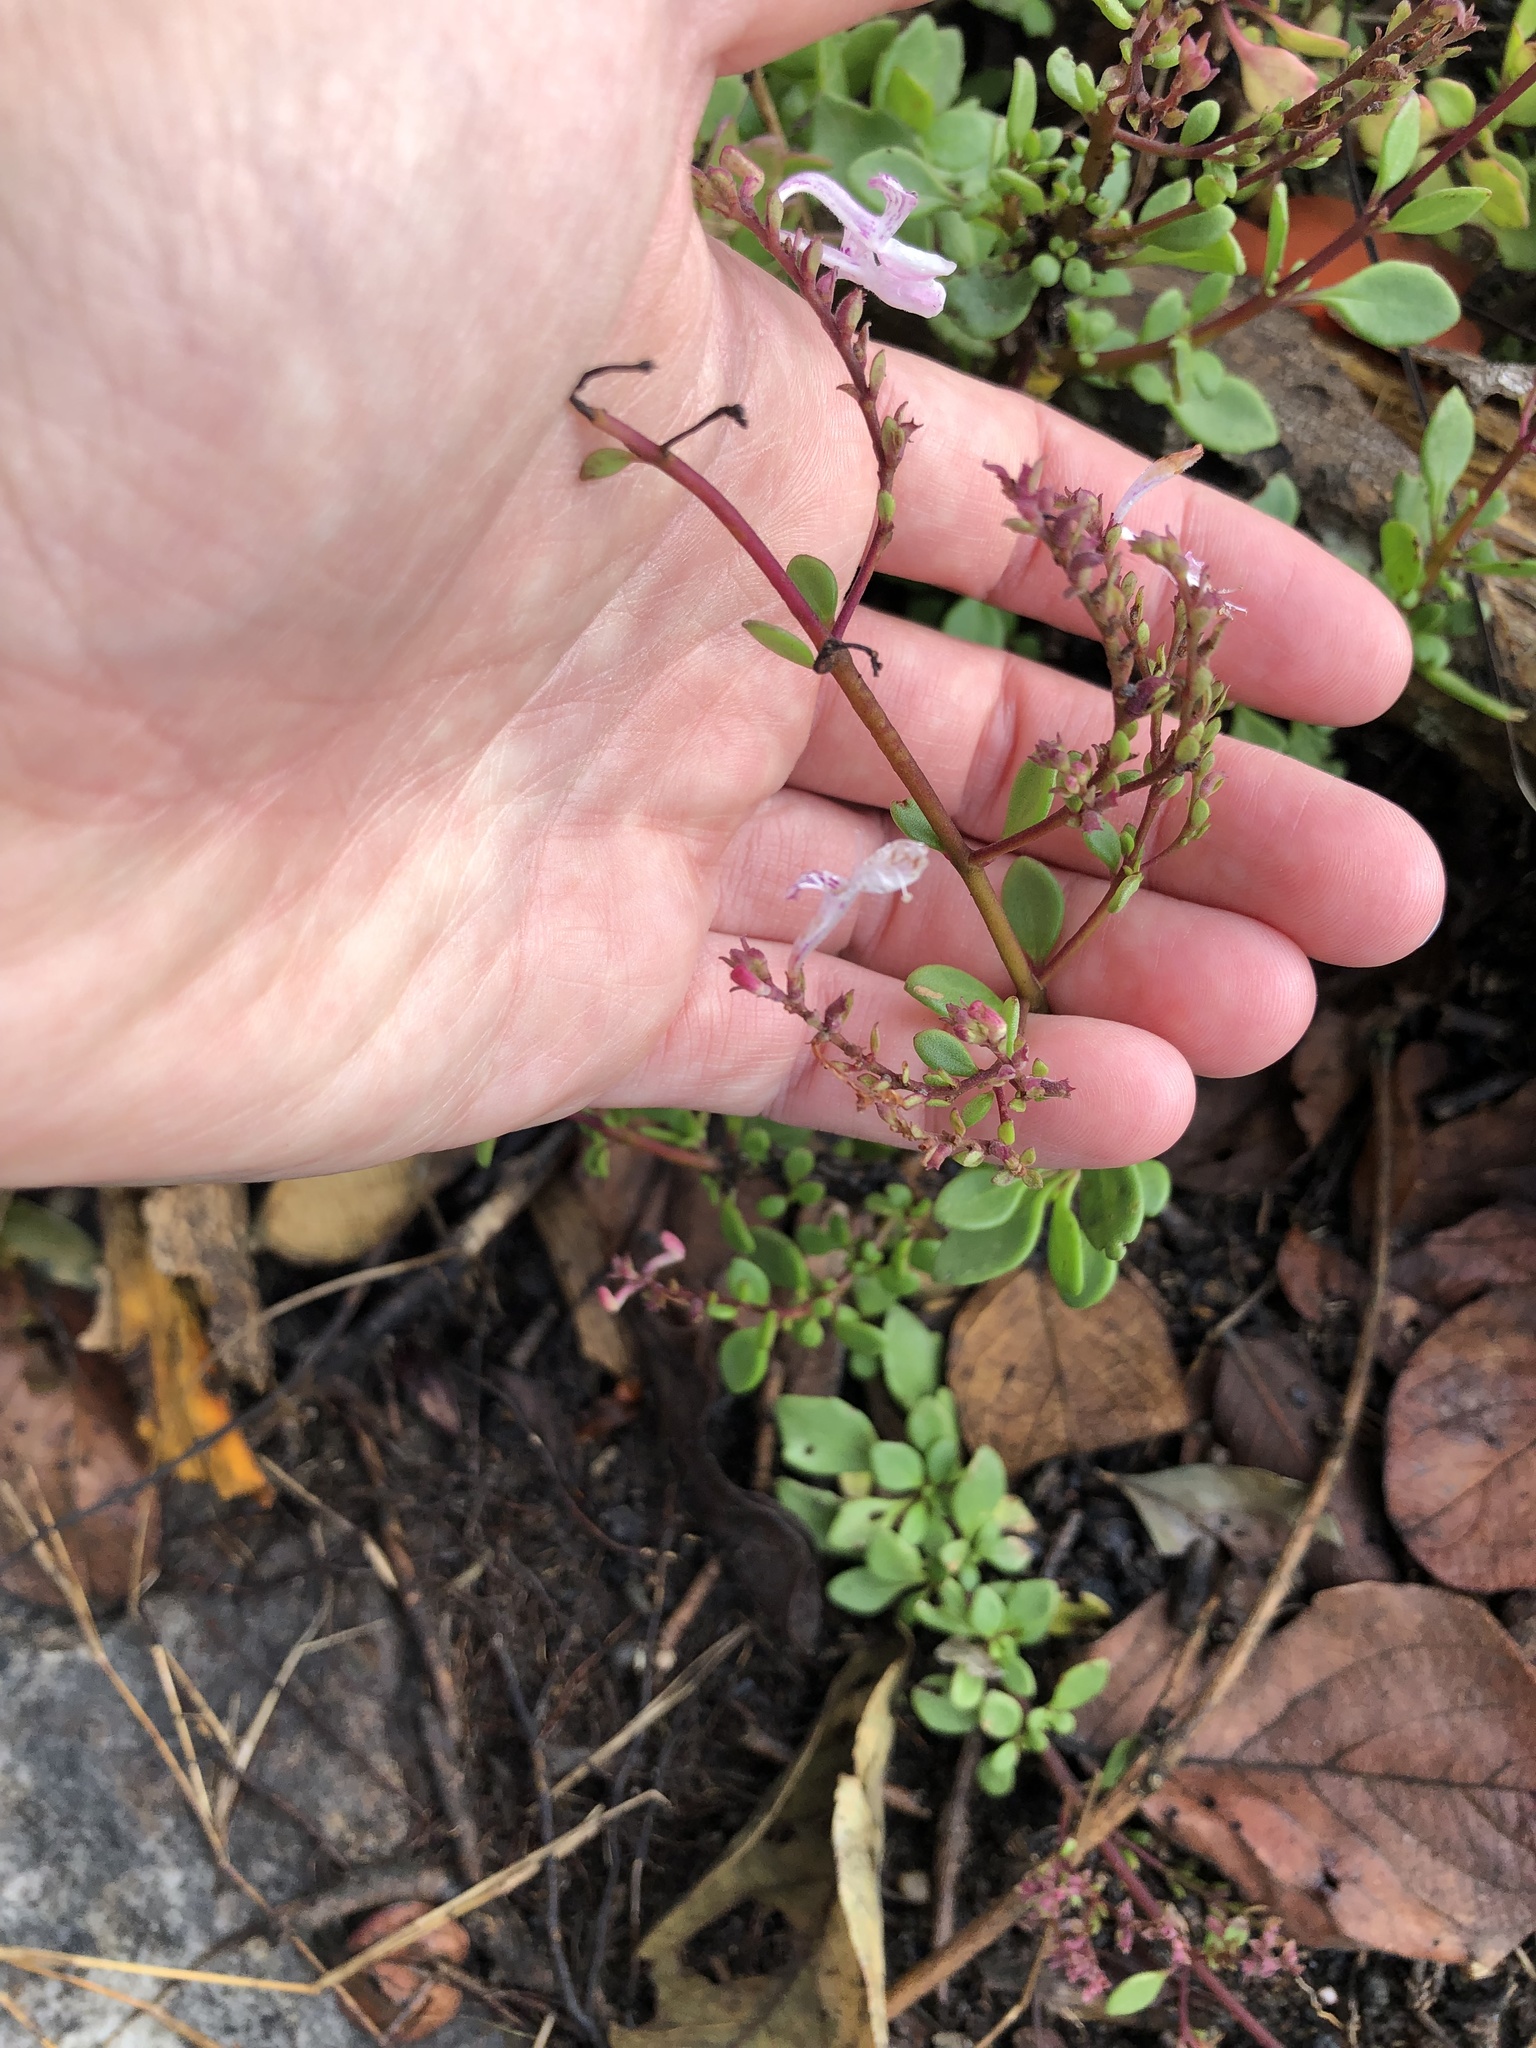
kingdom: Plantae
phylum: Tracheophyta
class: Magnoliopsida
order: Lamiales
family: Lamiaceae
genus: Aeollanthus
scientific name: Aeollanthus parvifolius
